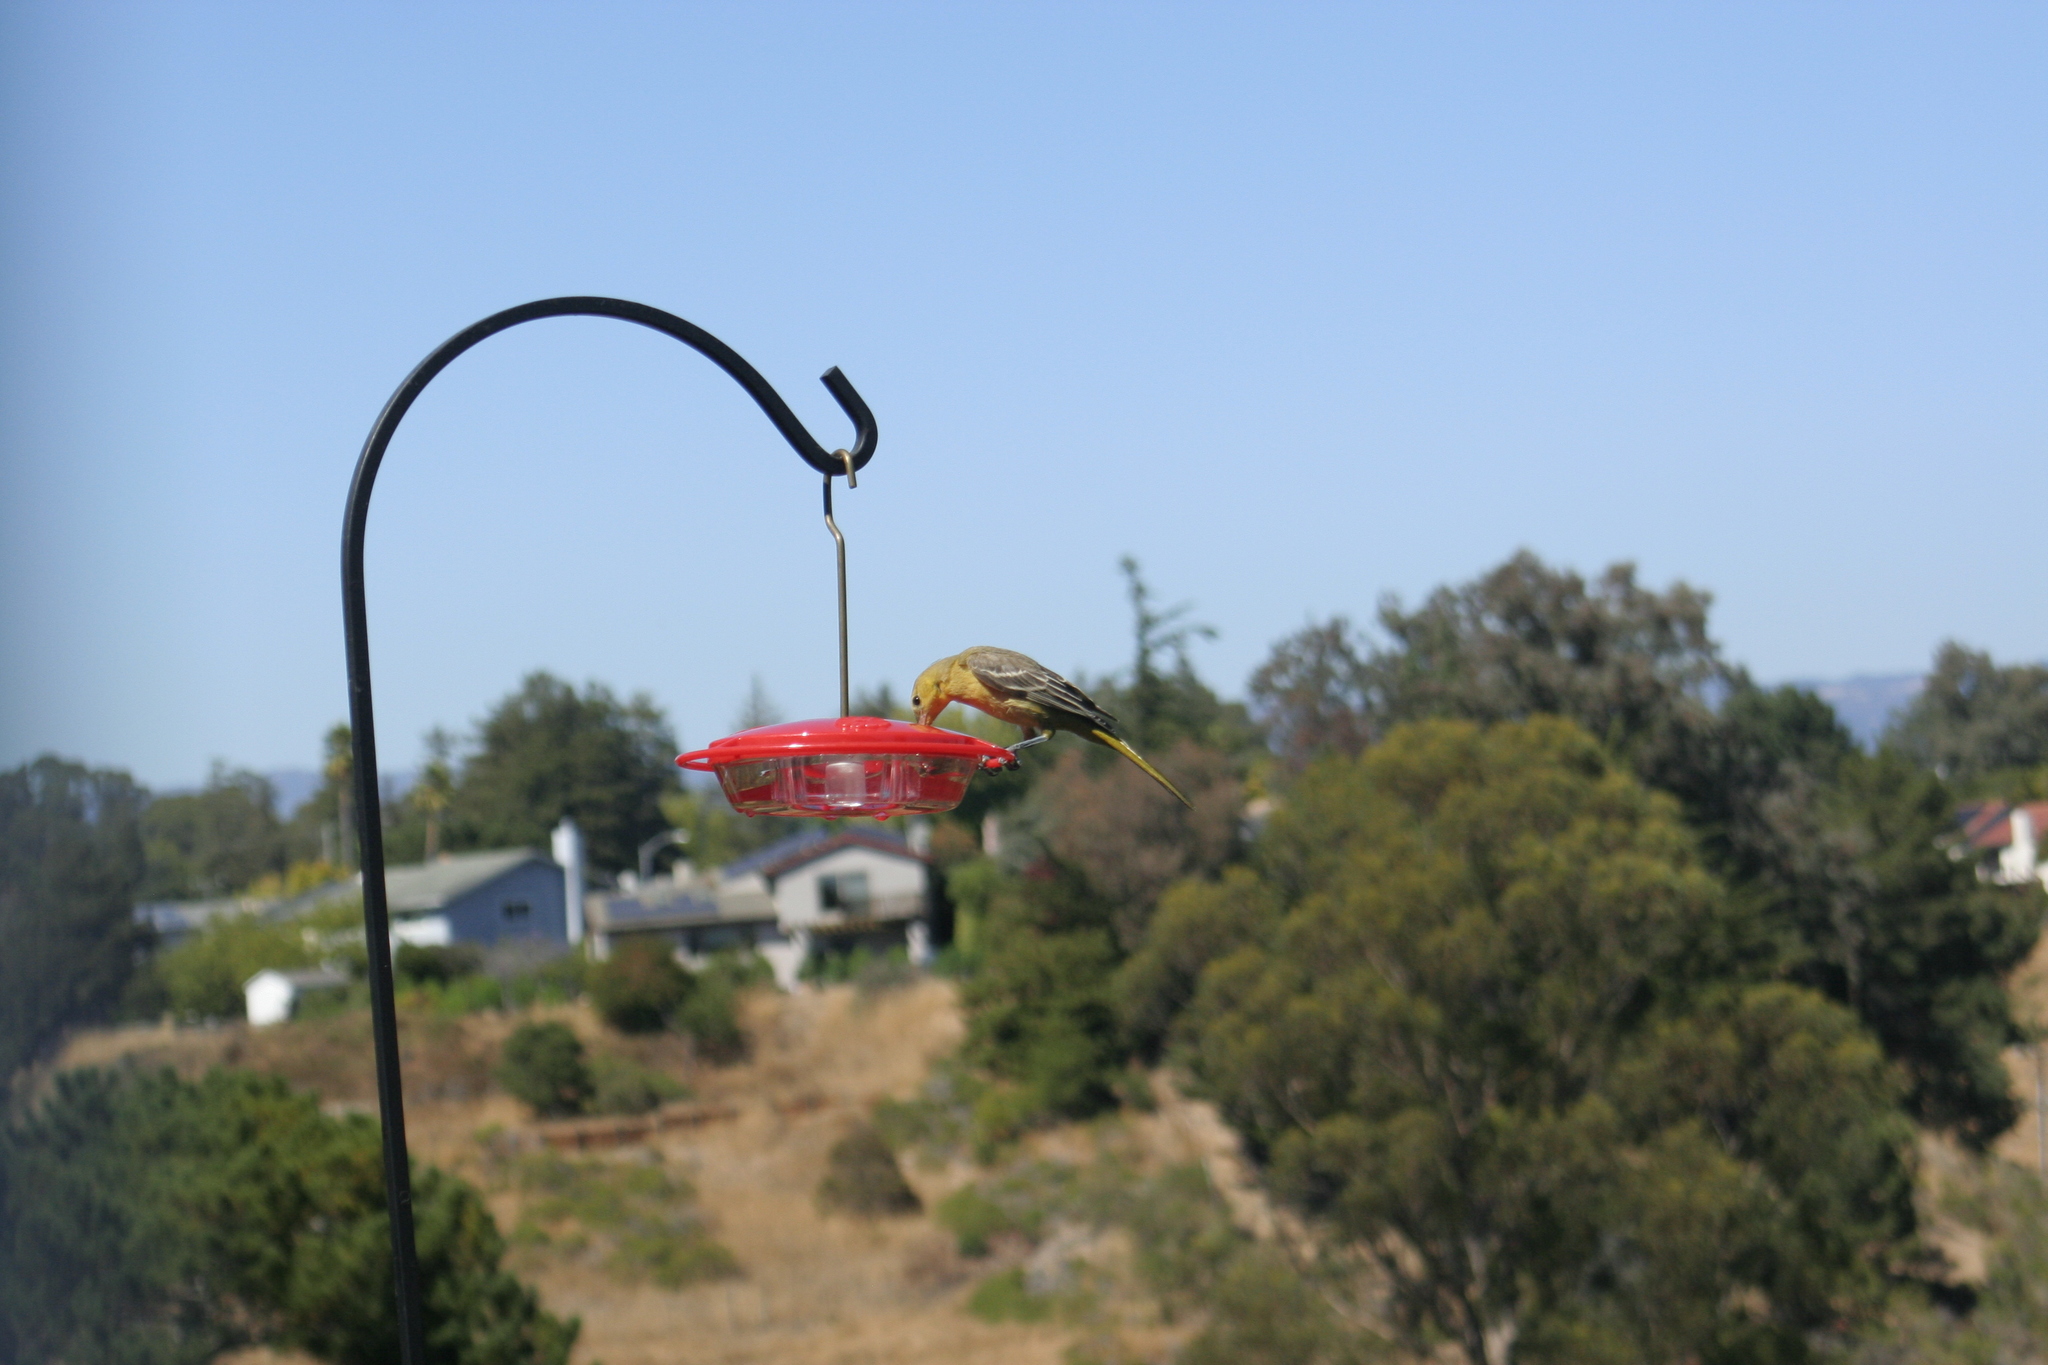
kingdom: Animalia
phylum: Chordata
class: Aves
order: Passeriformes
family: Icteridae
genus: Icterus
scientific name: Icterus cucullatus
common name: Hooded oriole
